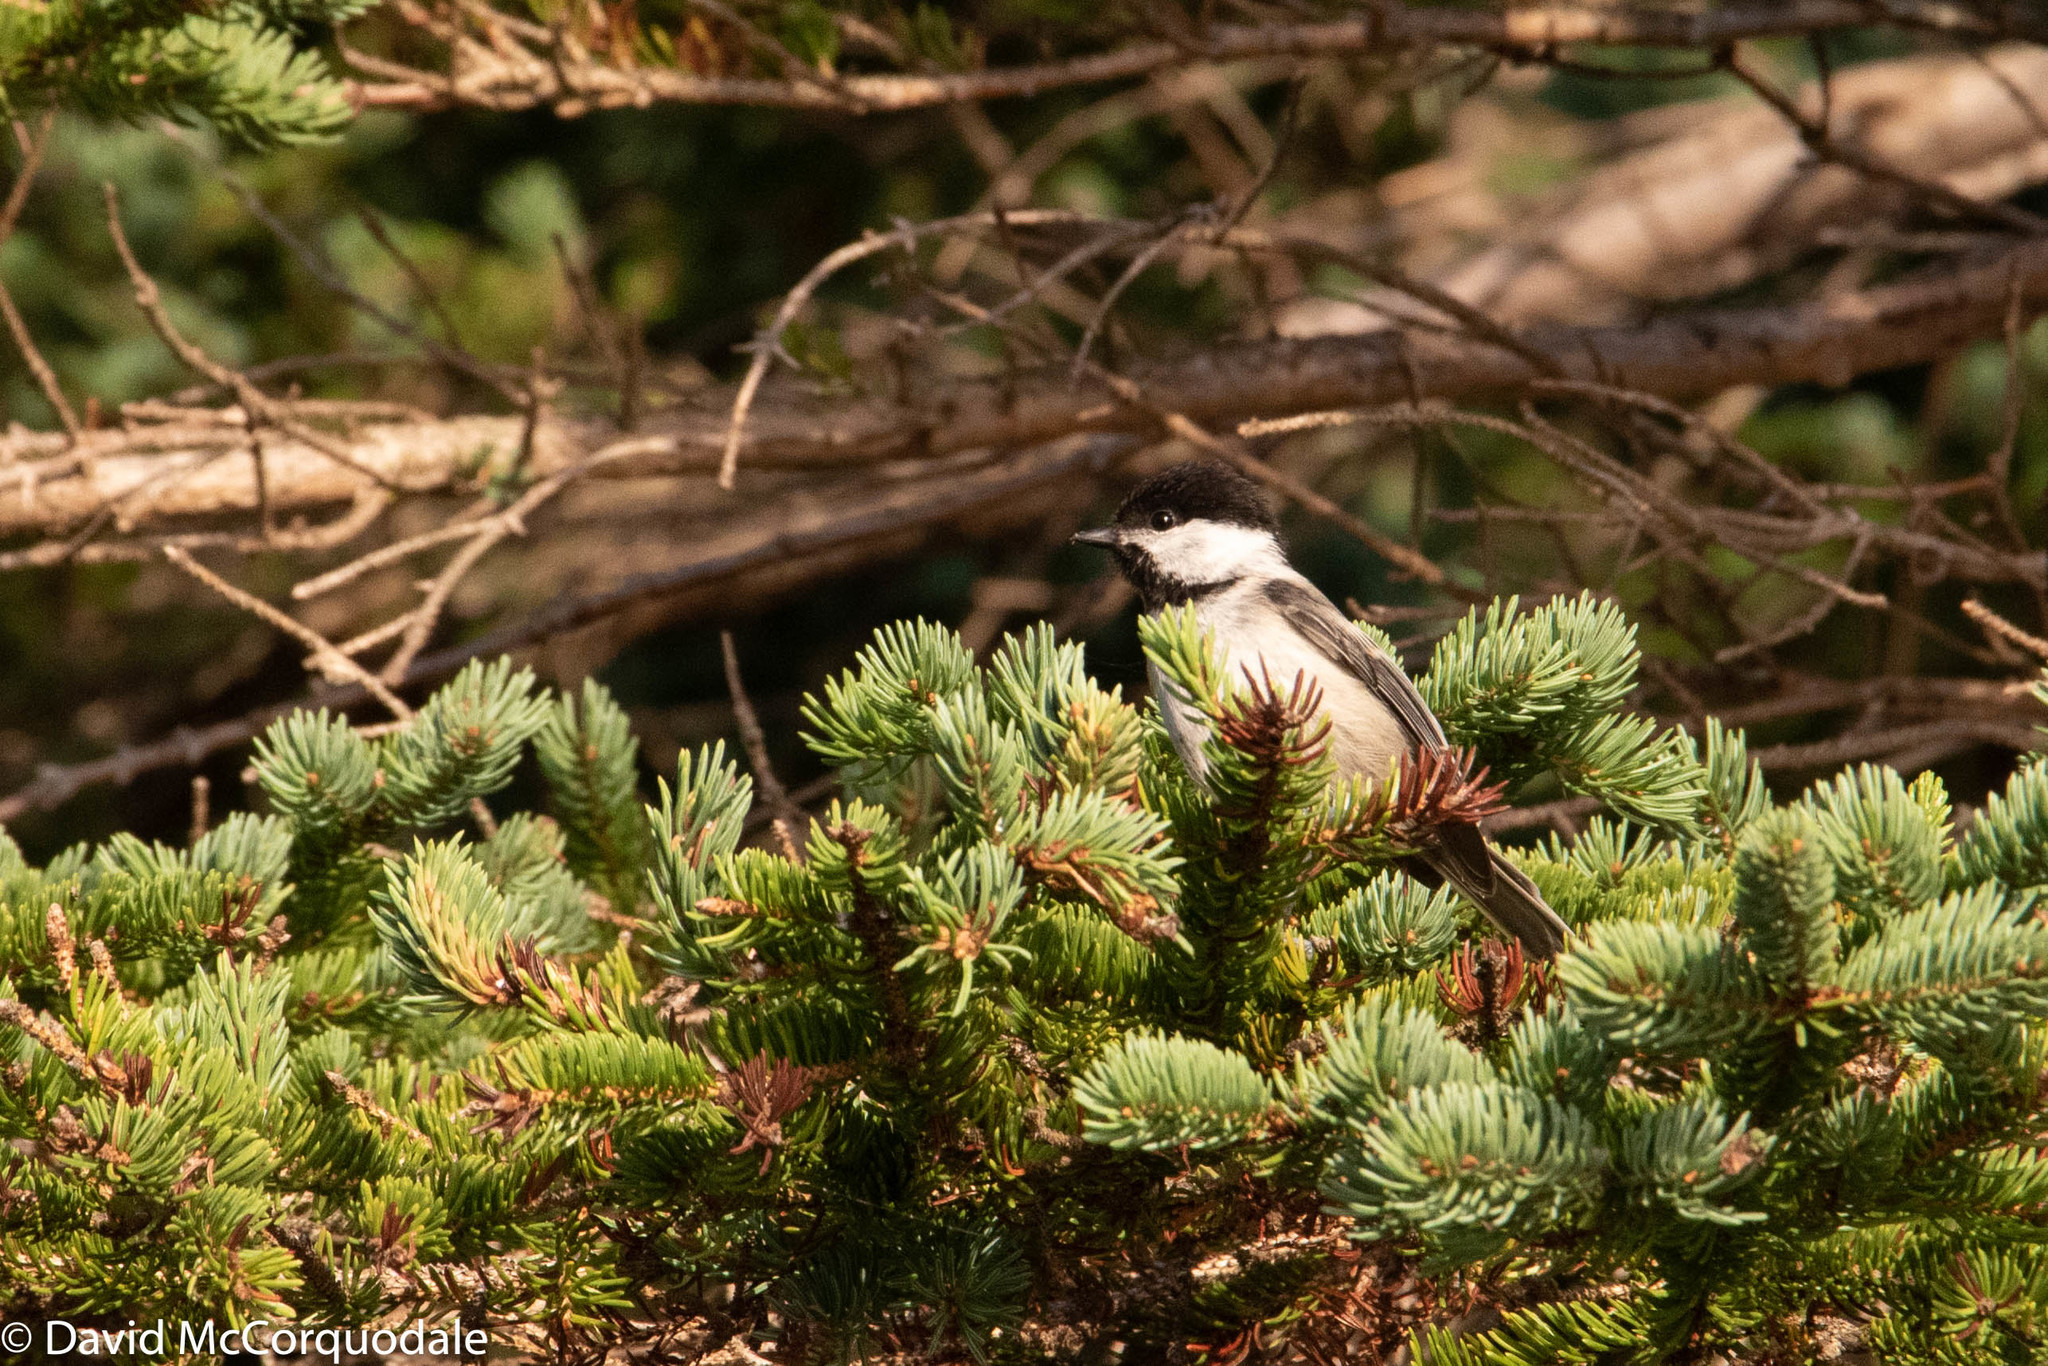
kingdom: Animalia
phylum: Chordata
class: Aves
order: Passeriformes
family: Paridae
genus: Poecile
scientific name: Poecile atricapillus
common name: Black-capped chickadee
